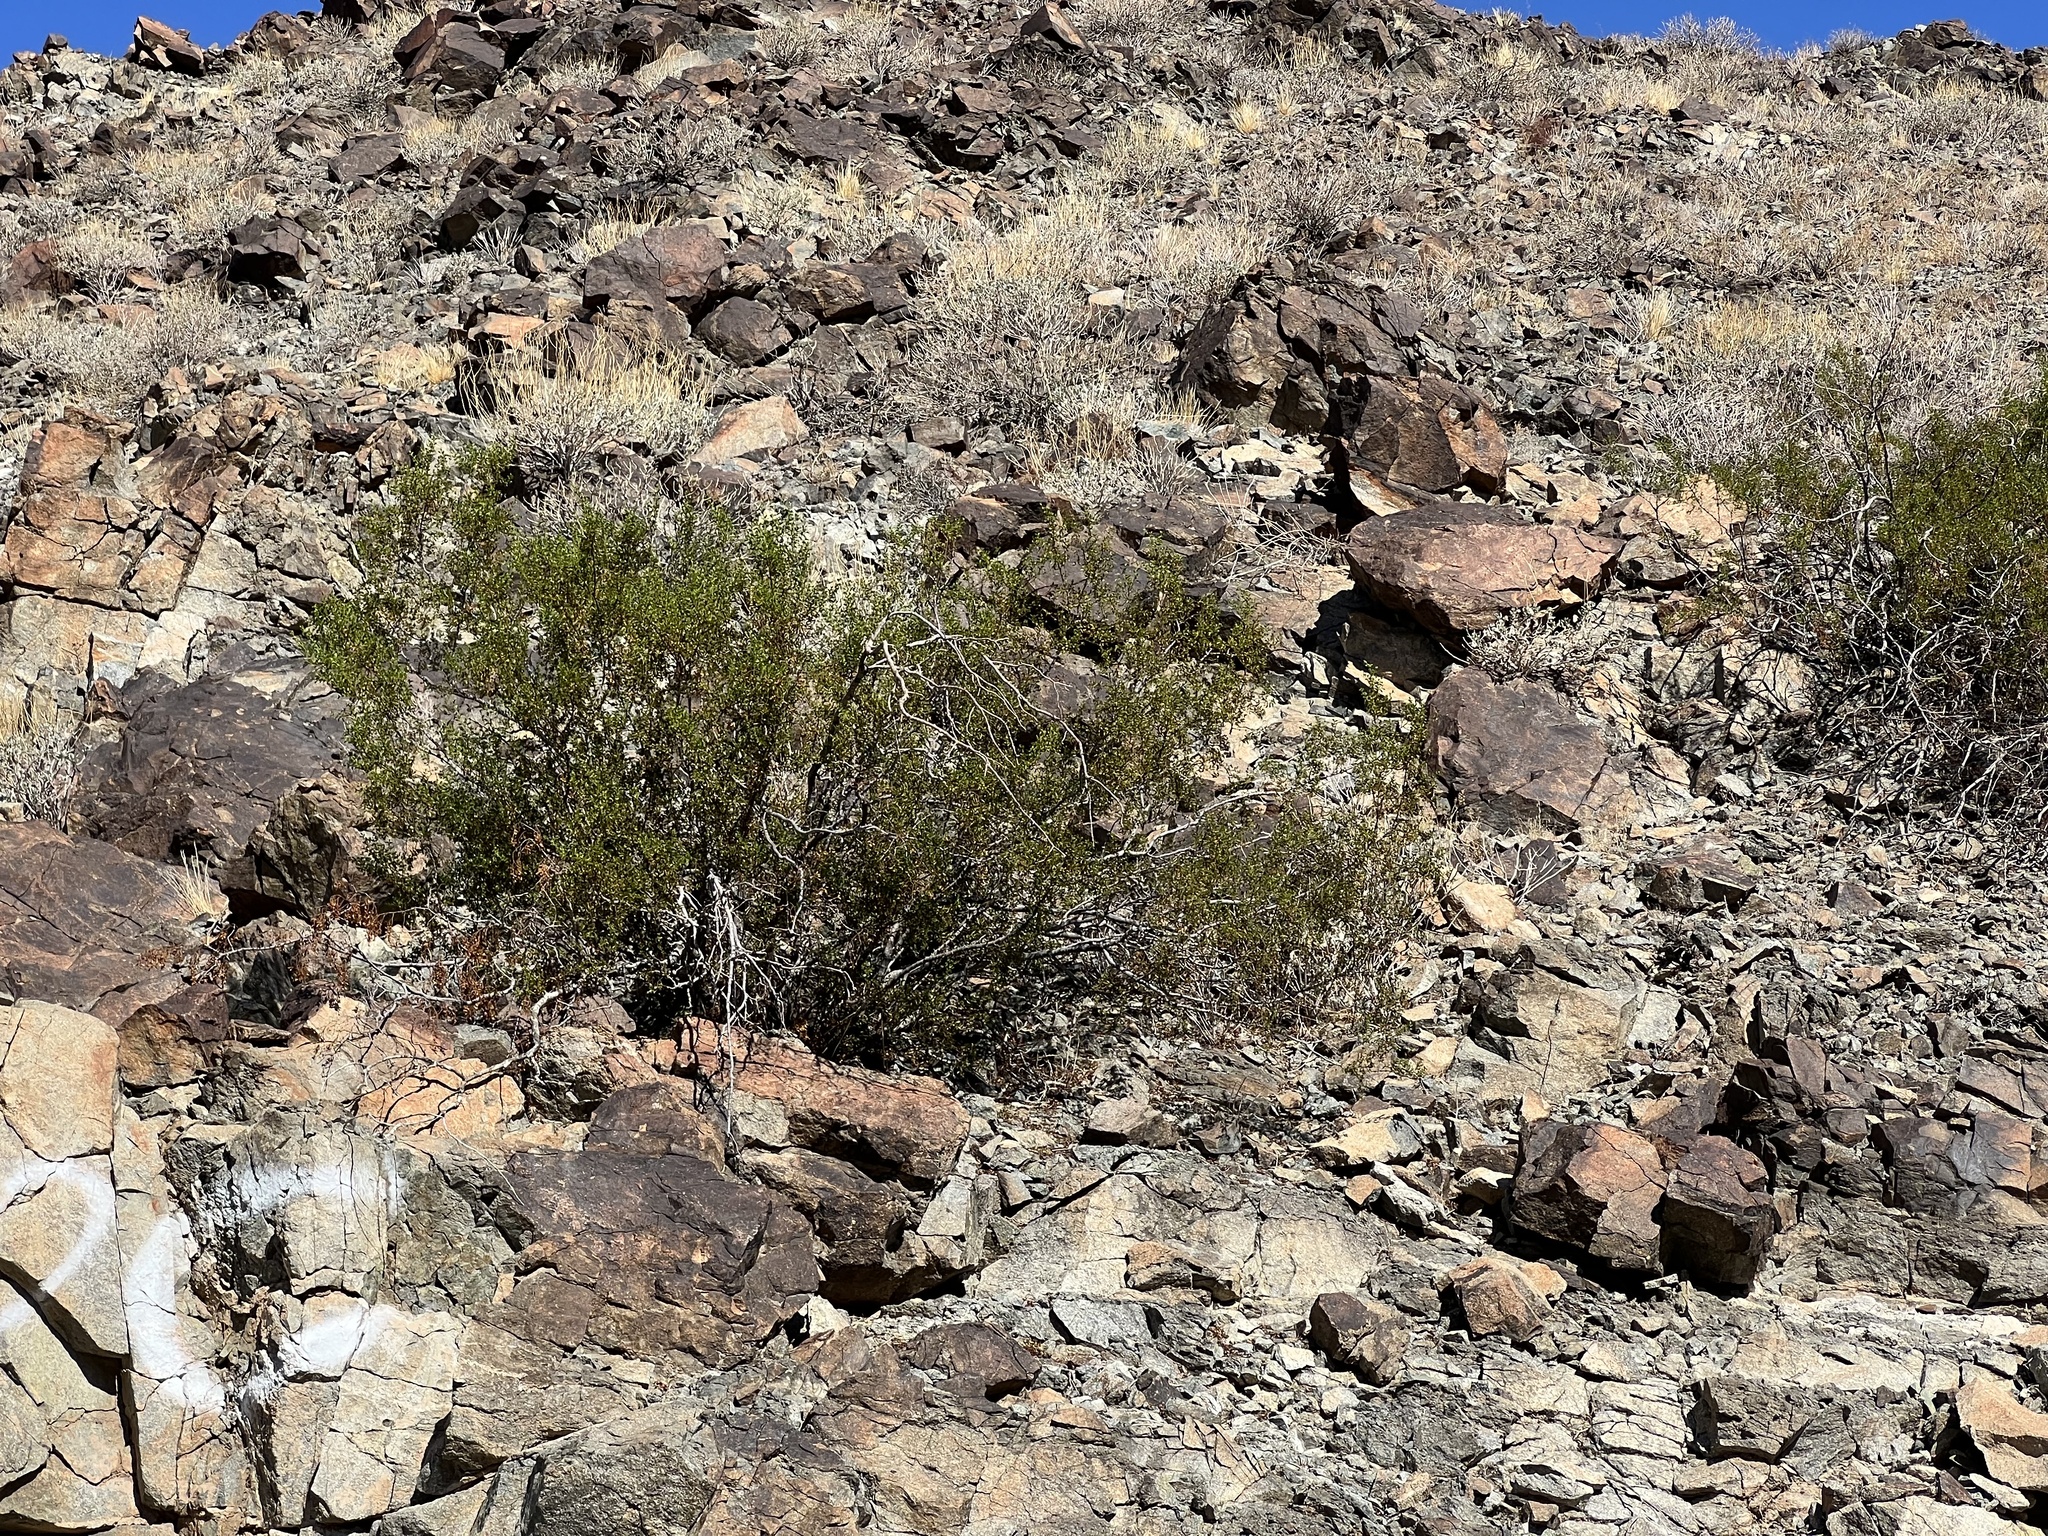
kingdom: Plantae
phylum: Tracheophyta
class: Magnoliopsida
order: Zygophyllales
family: Zygophyllaceae
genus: Larrea
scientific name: Larrea tridentata
